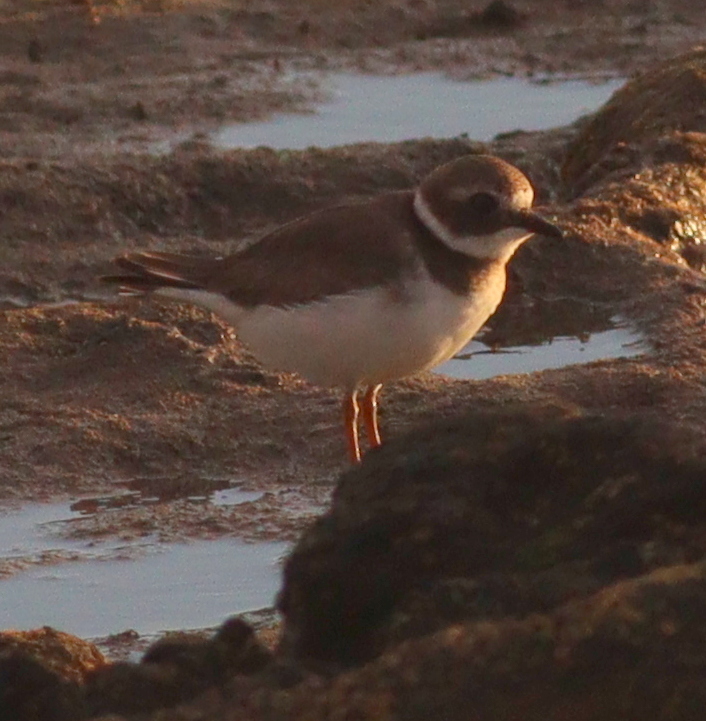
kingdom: Animalia
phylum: Chordata
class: Aves
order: Charadriiformes
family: Charadriidae
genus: Charadrius
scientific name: Charadrius hiaticula
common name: Common ringed plover
